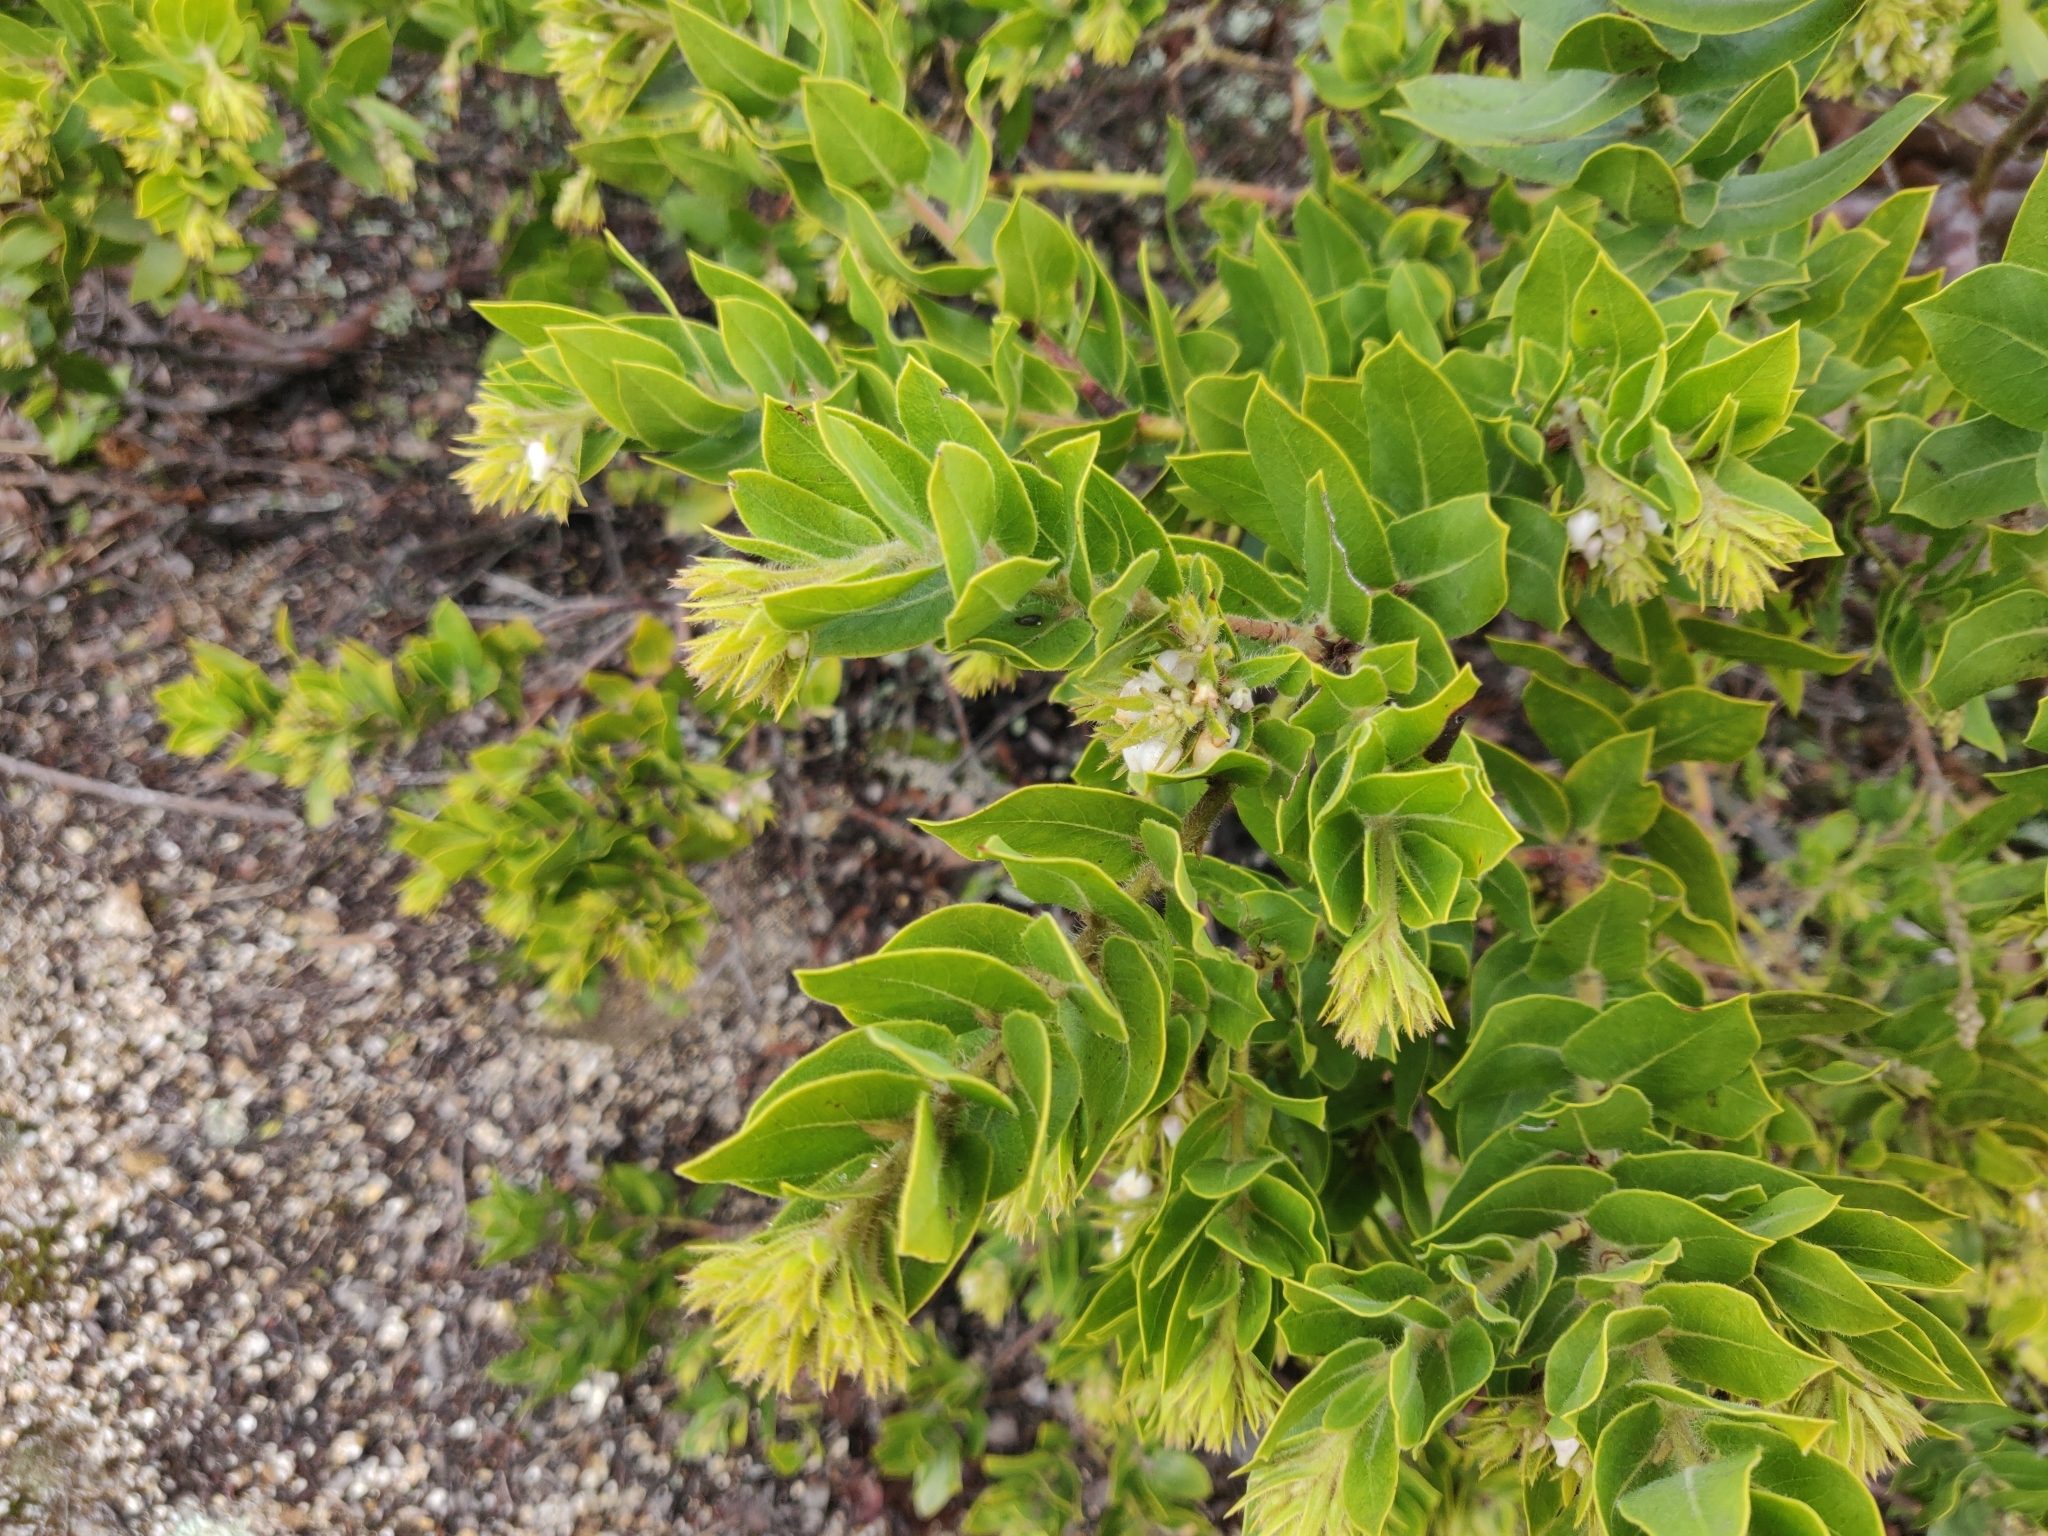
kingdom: Plantae
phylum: Tracheophyta
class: Magnoliopsida
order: Ericales
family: Ericaceae
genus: Arctostaphylos
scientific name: Arctostaphylos montaraensis
